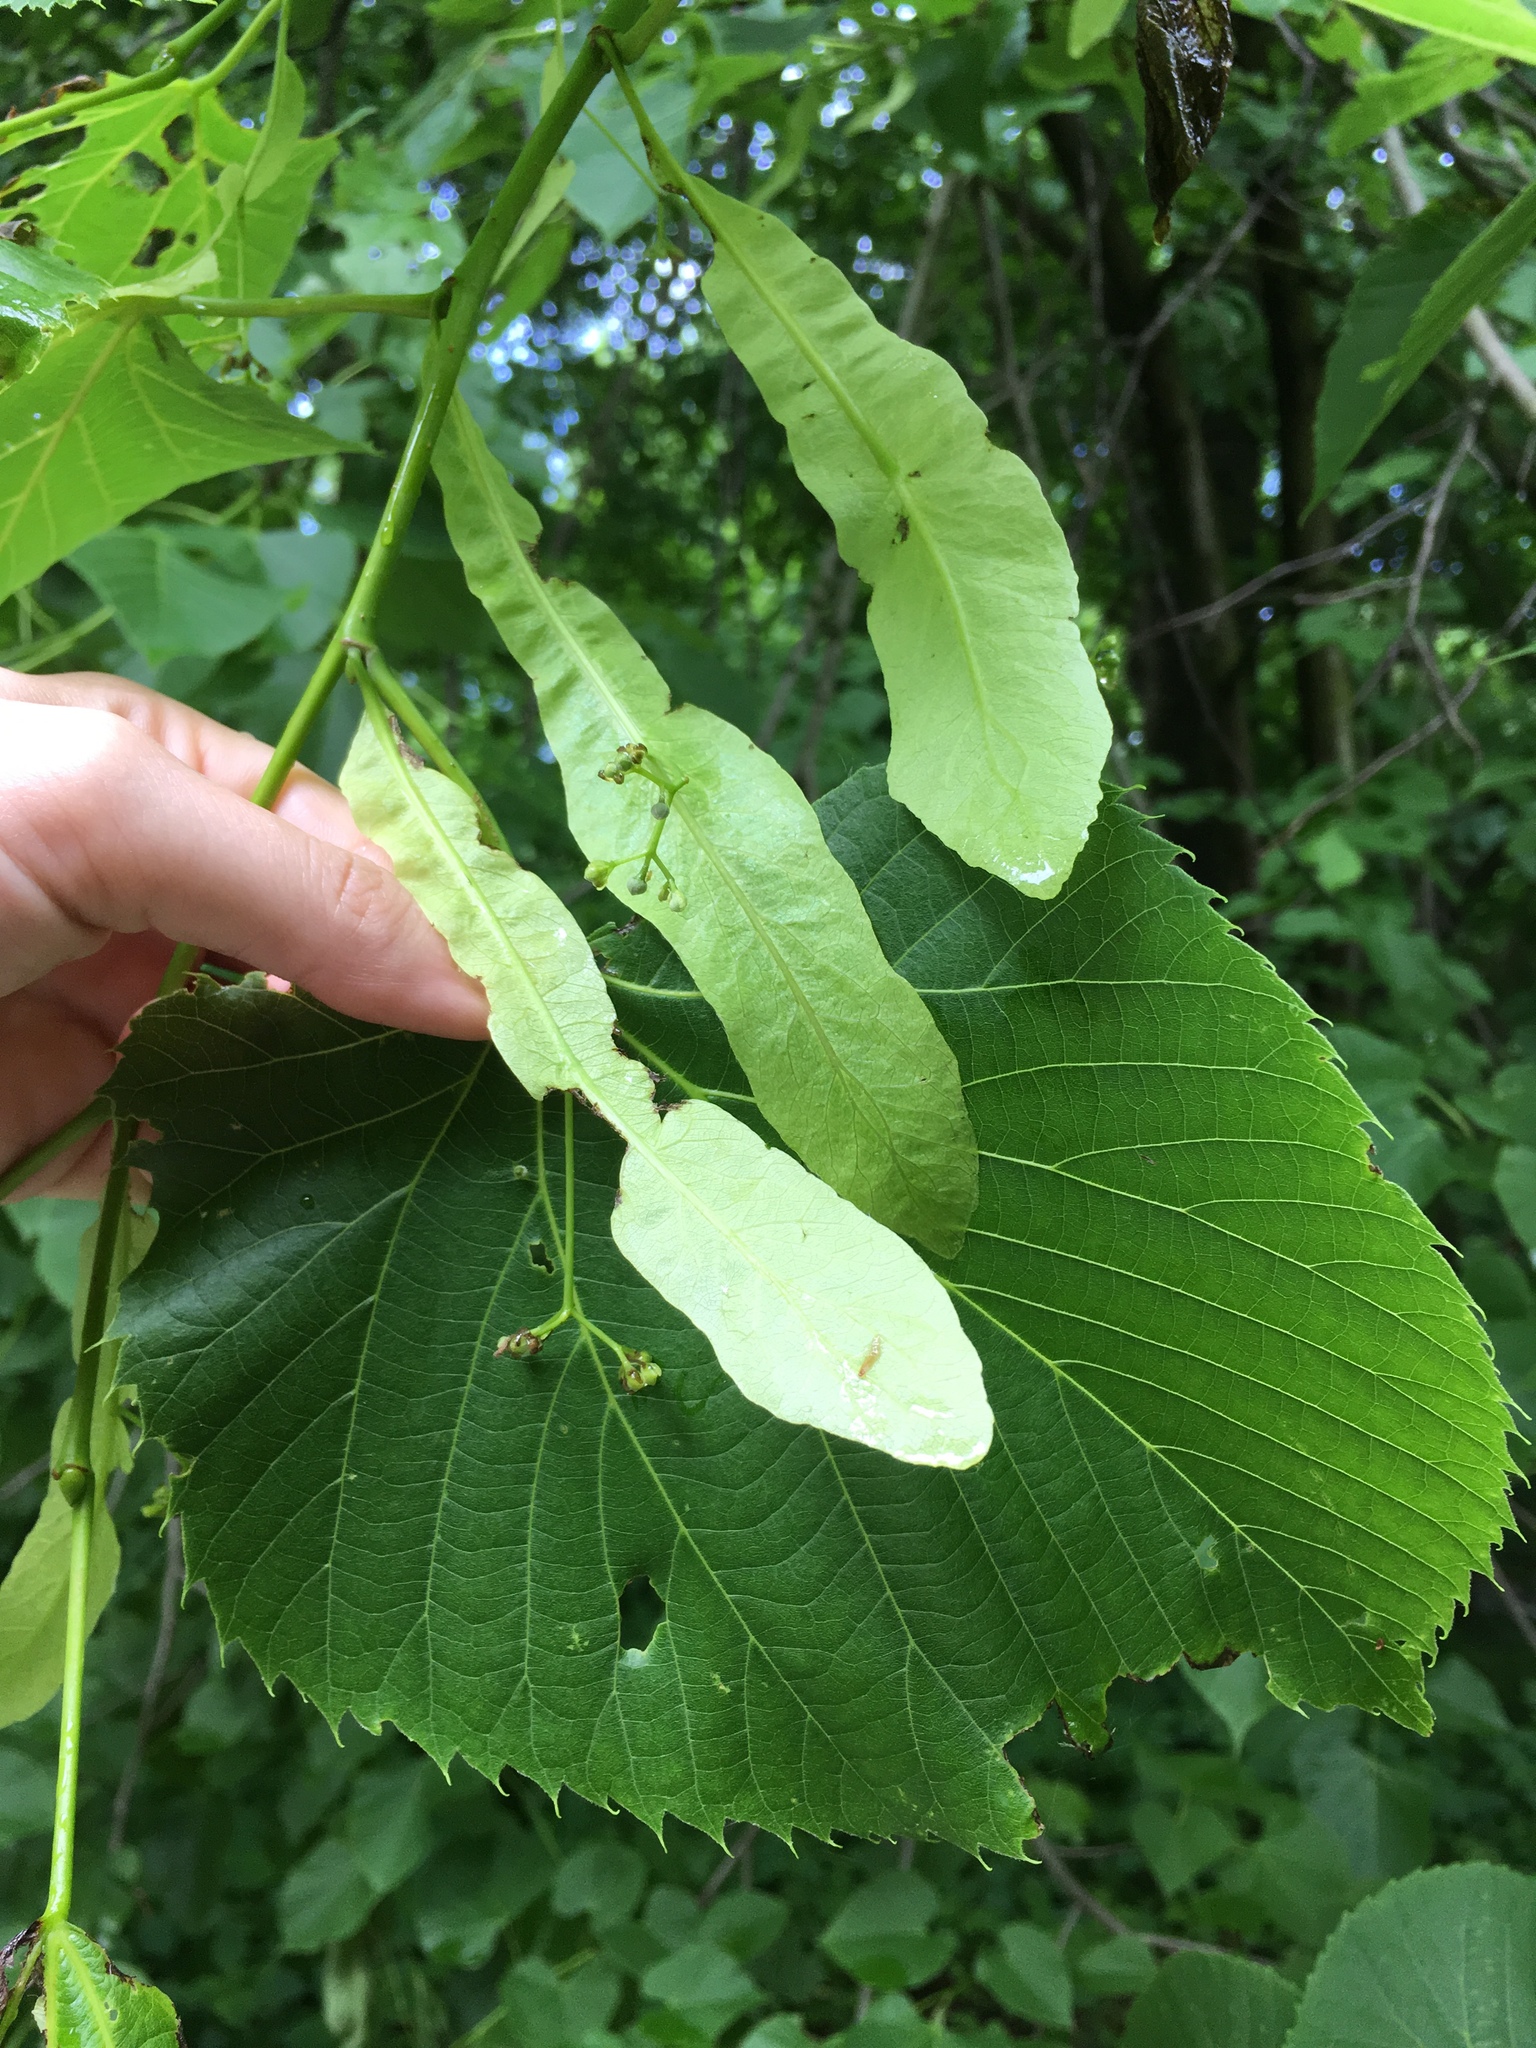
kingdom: Plantae
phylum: Tracheophyta
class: Magnoliopsida
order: Malvales
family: Malvaceae
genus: Tilia
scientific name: Tilia americana
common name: Basswood
